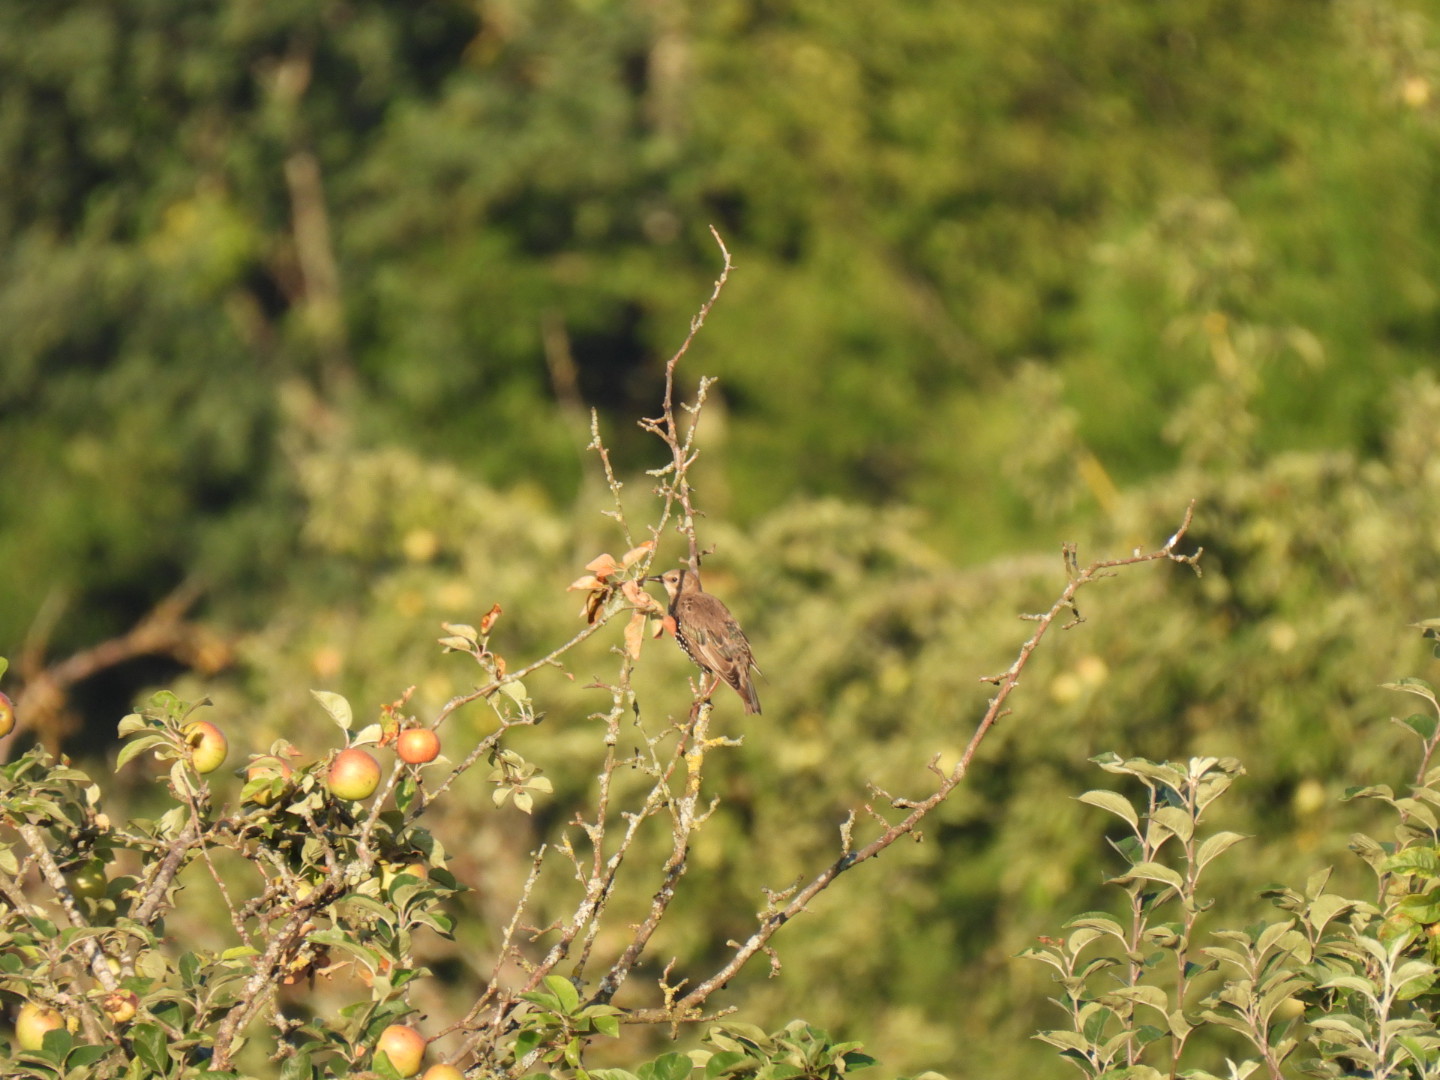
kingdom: Animalia
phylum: Chordata
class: Aves
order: Passeriformes
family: Sturnidae
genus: Sturnus
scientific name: Sturnus vulgaris
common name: Common starling
